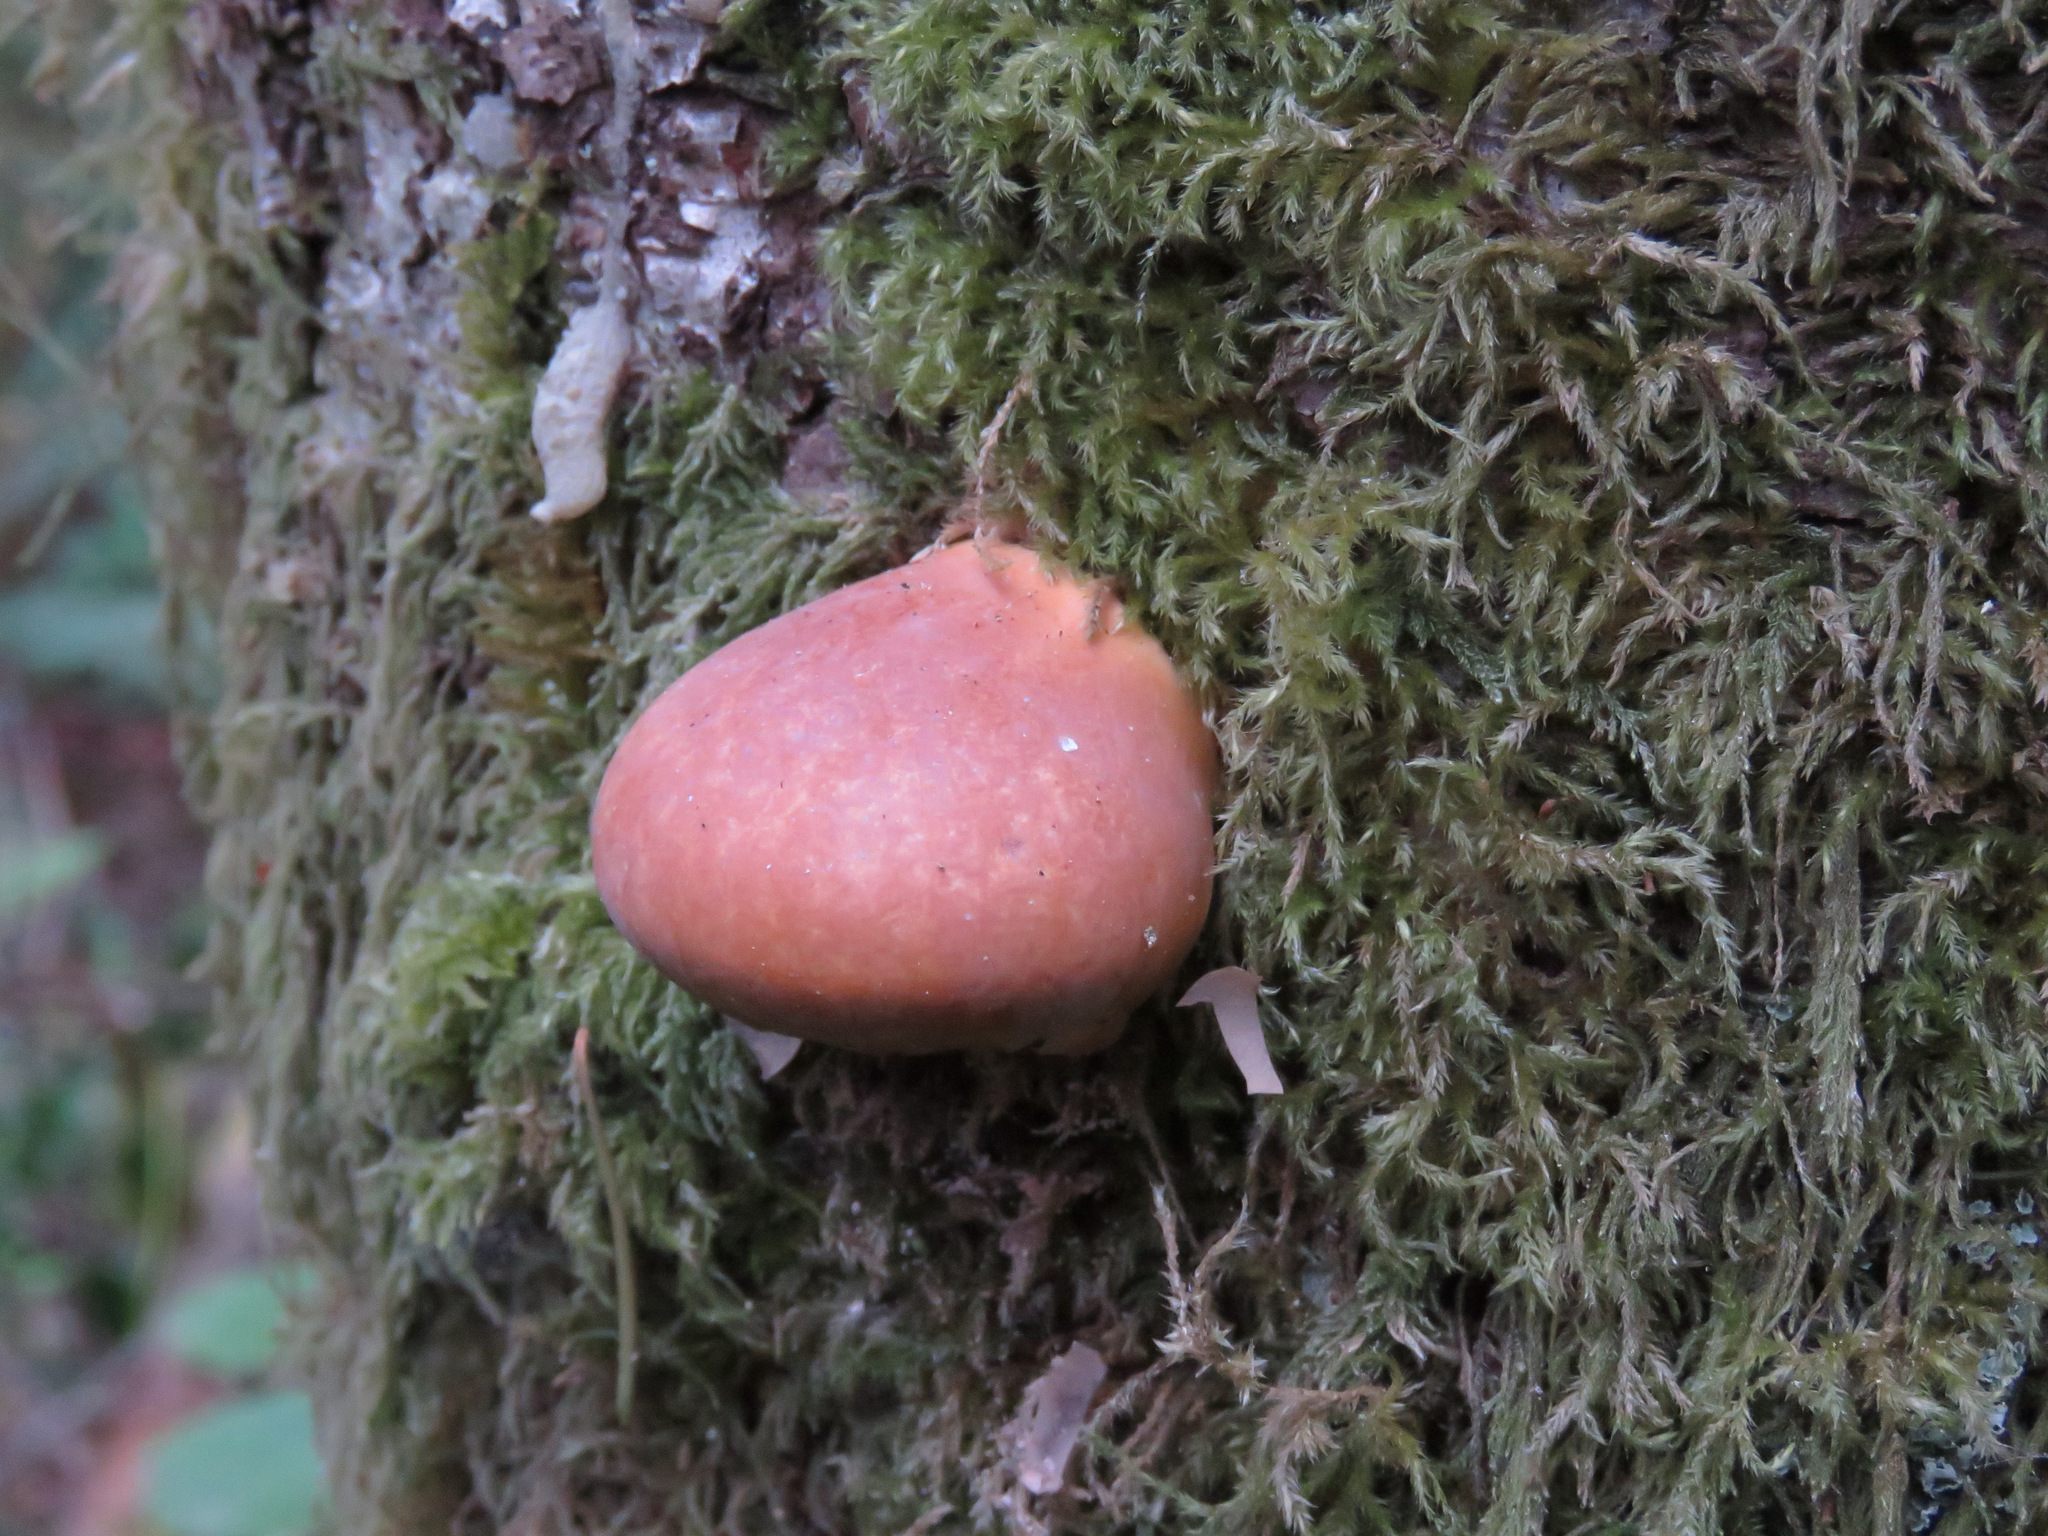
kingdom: Fungi
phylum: Basidiomycota
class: Agaricomycetes
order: Polyporales
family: Polyporaceae
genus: Cryptoporus
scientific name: Cryptoporus volvatus
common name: Veiled polypore
